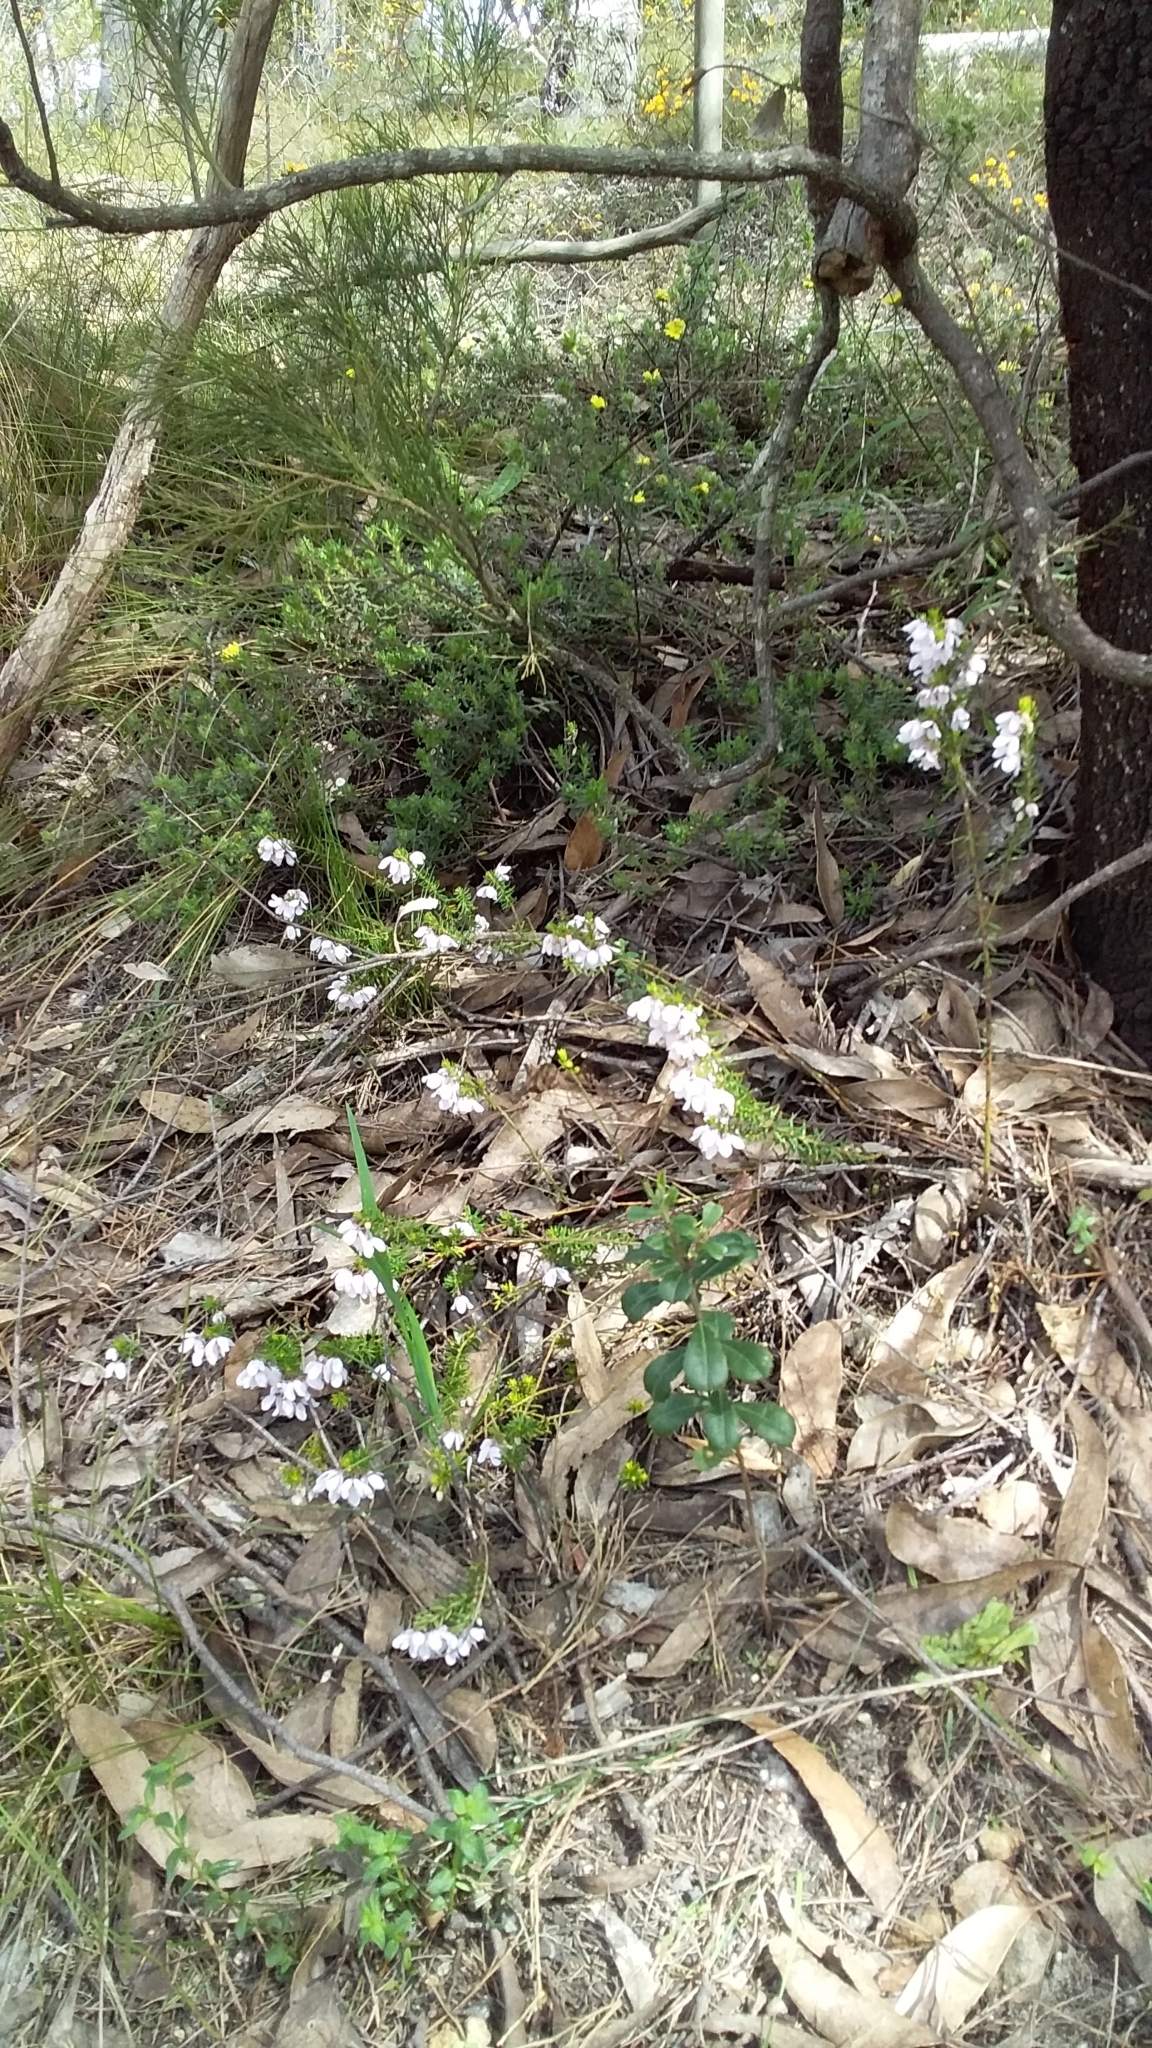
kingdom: Plantae
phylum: Tracheophyta
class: Magnoliopsida
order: Oxalidales
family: Elaeocarpaceae
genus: Tetratheca
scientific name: Tetratheca pilosa
